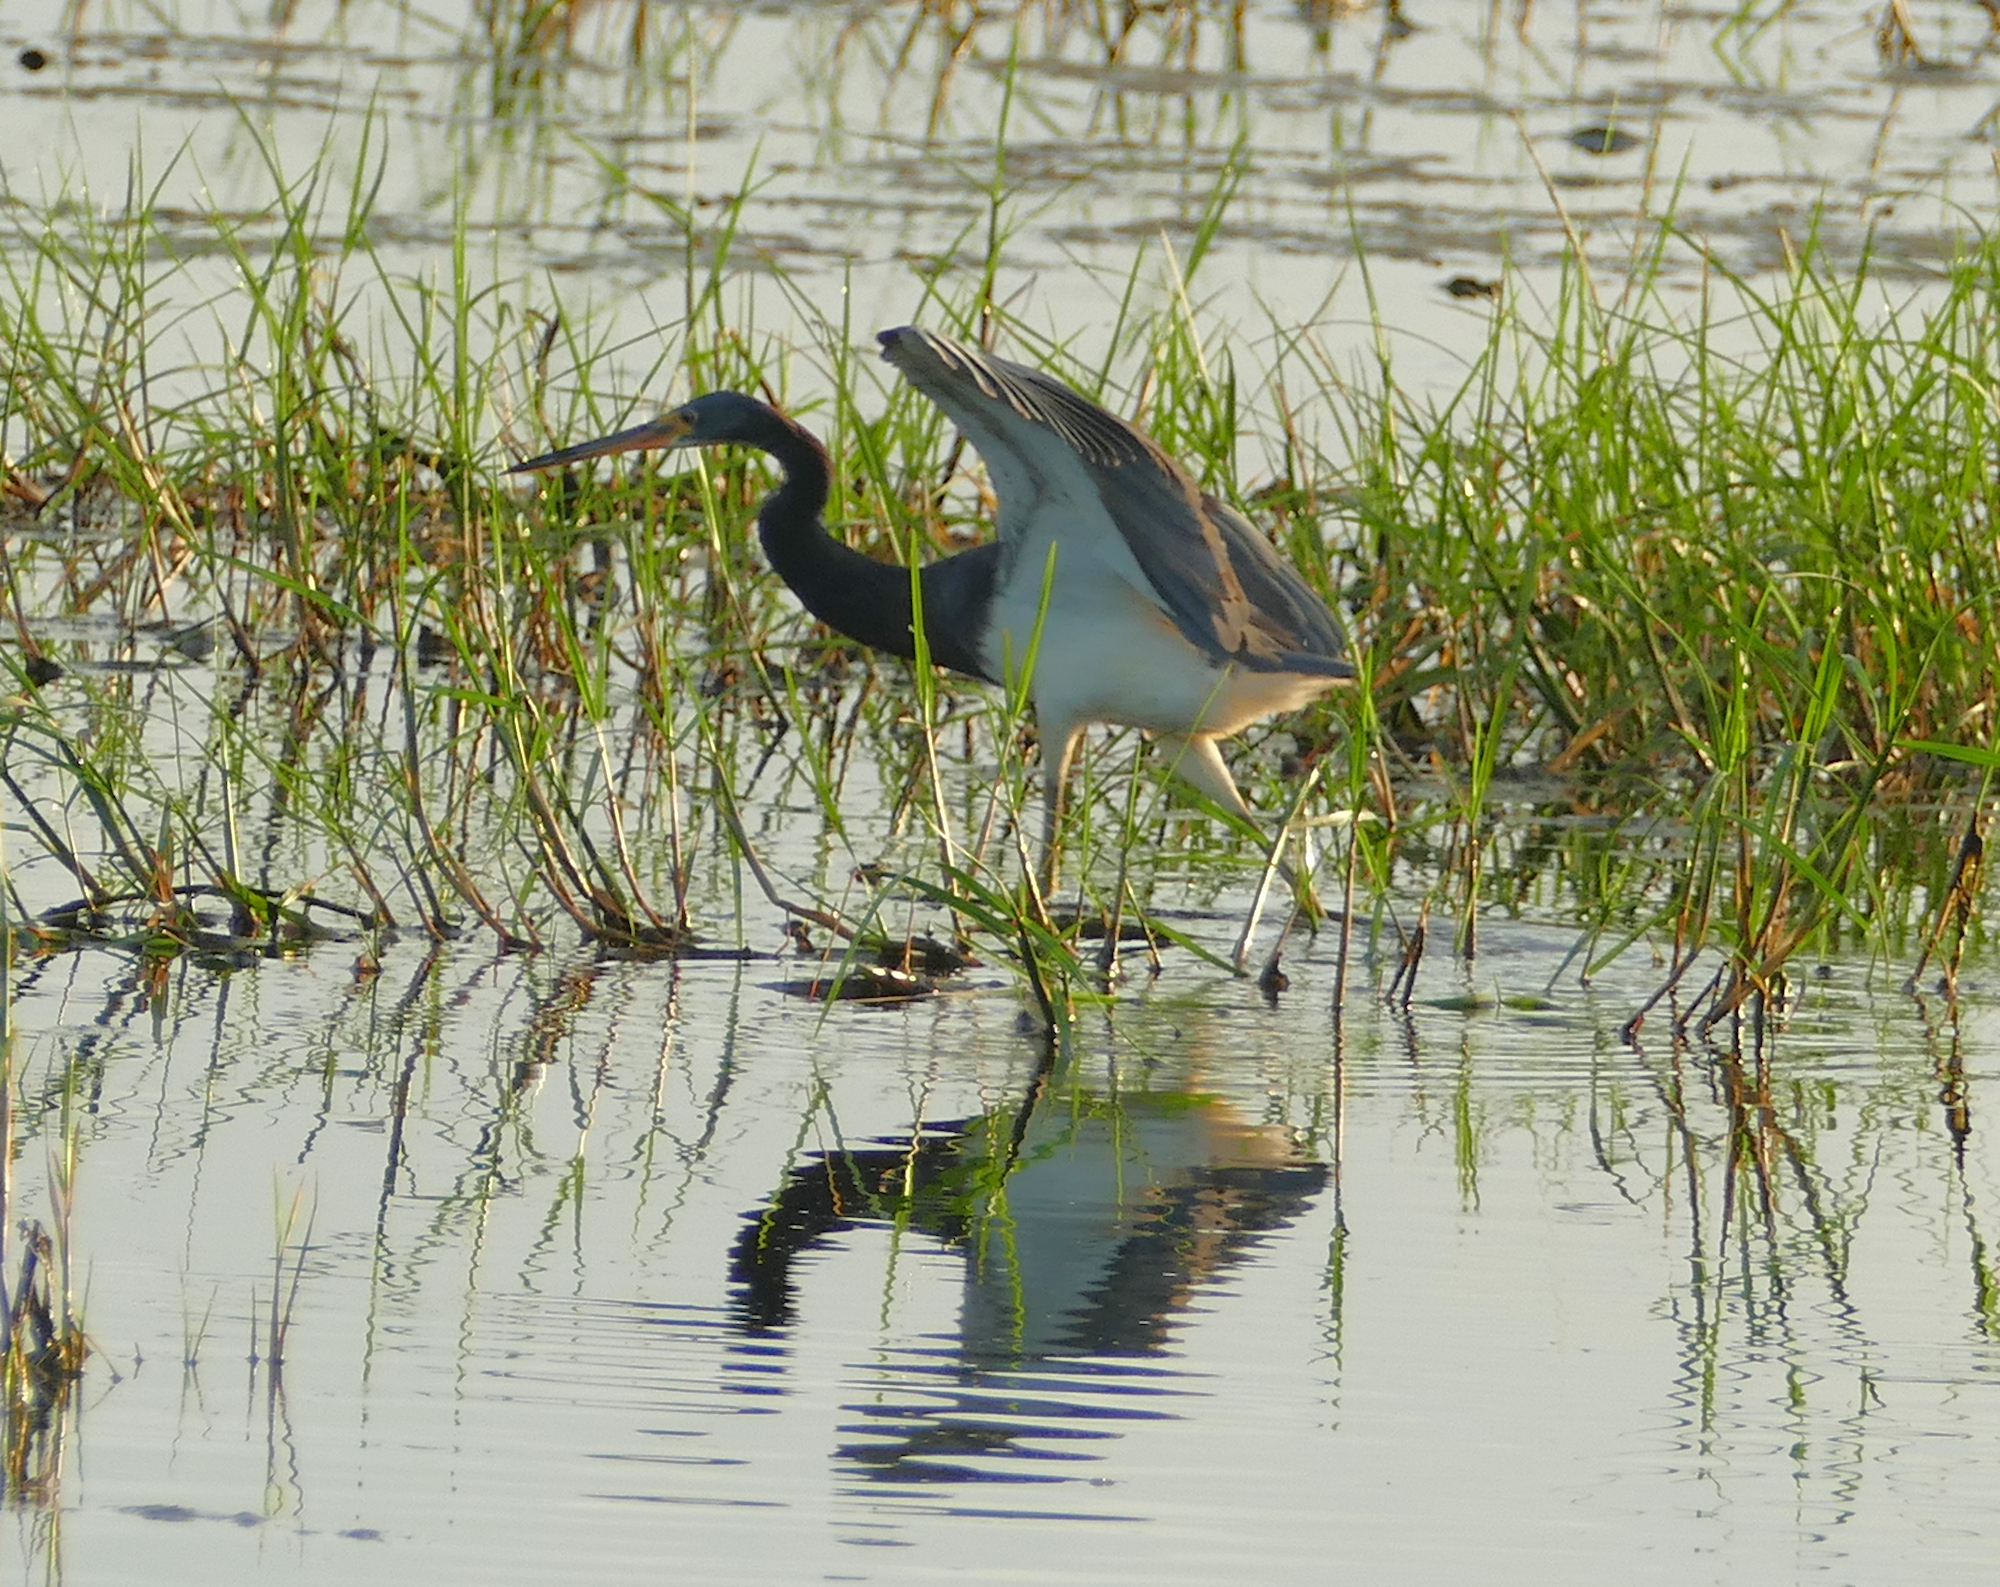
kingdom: Animalia
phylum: Chordata
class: Aves
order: Pelecaniformes
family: Ardeidae
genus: Egretta
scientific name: Egretta tricolor
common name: Tricolored heron
